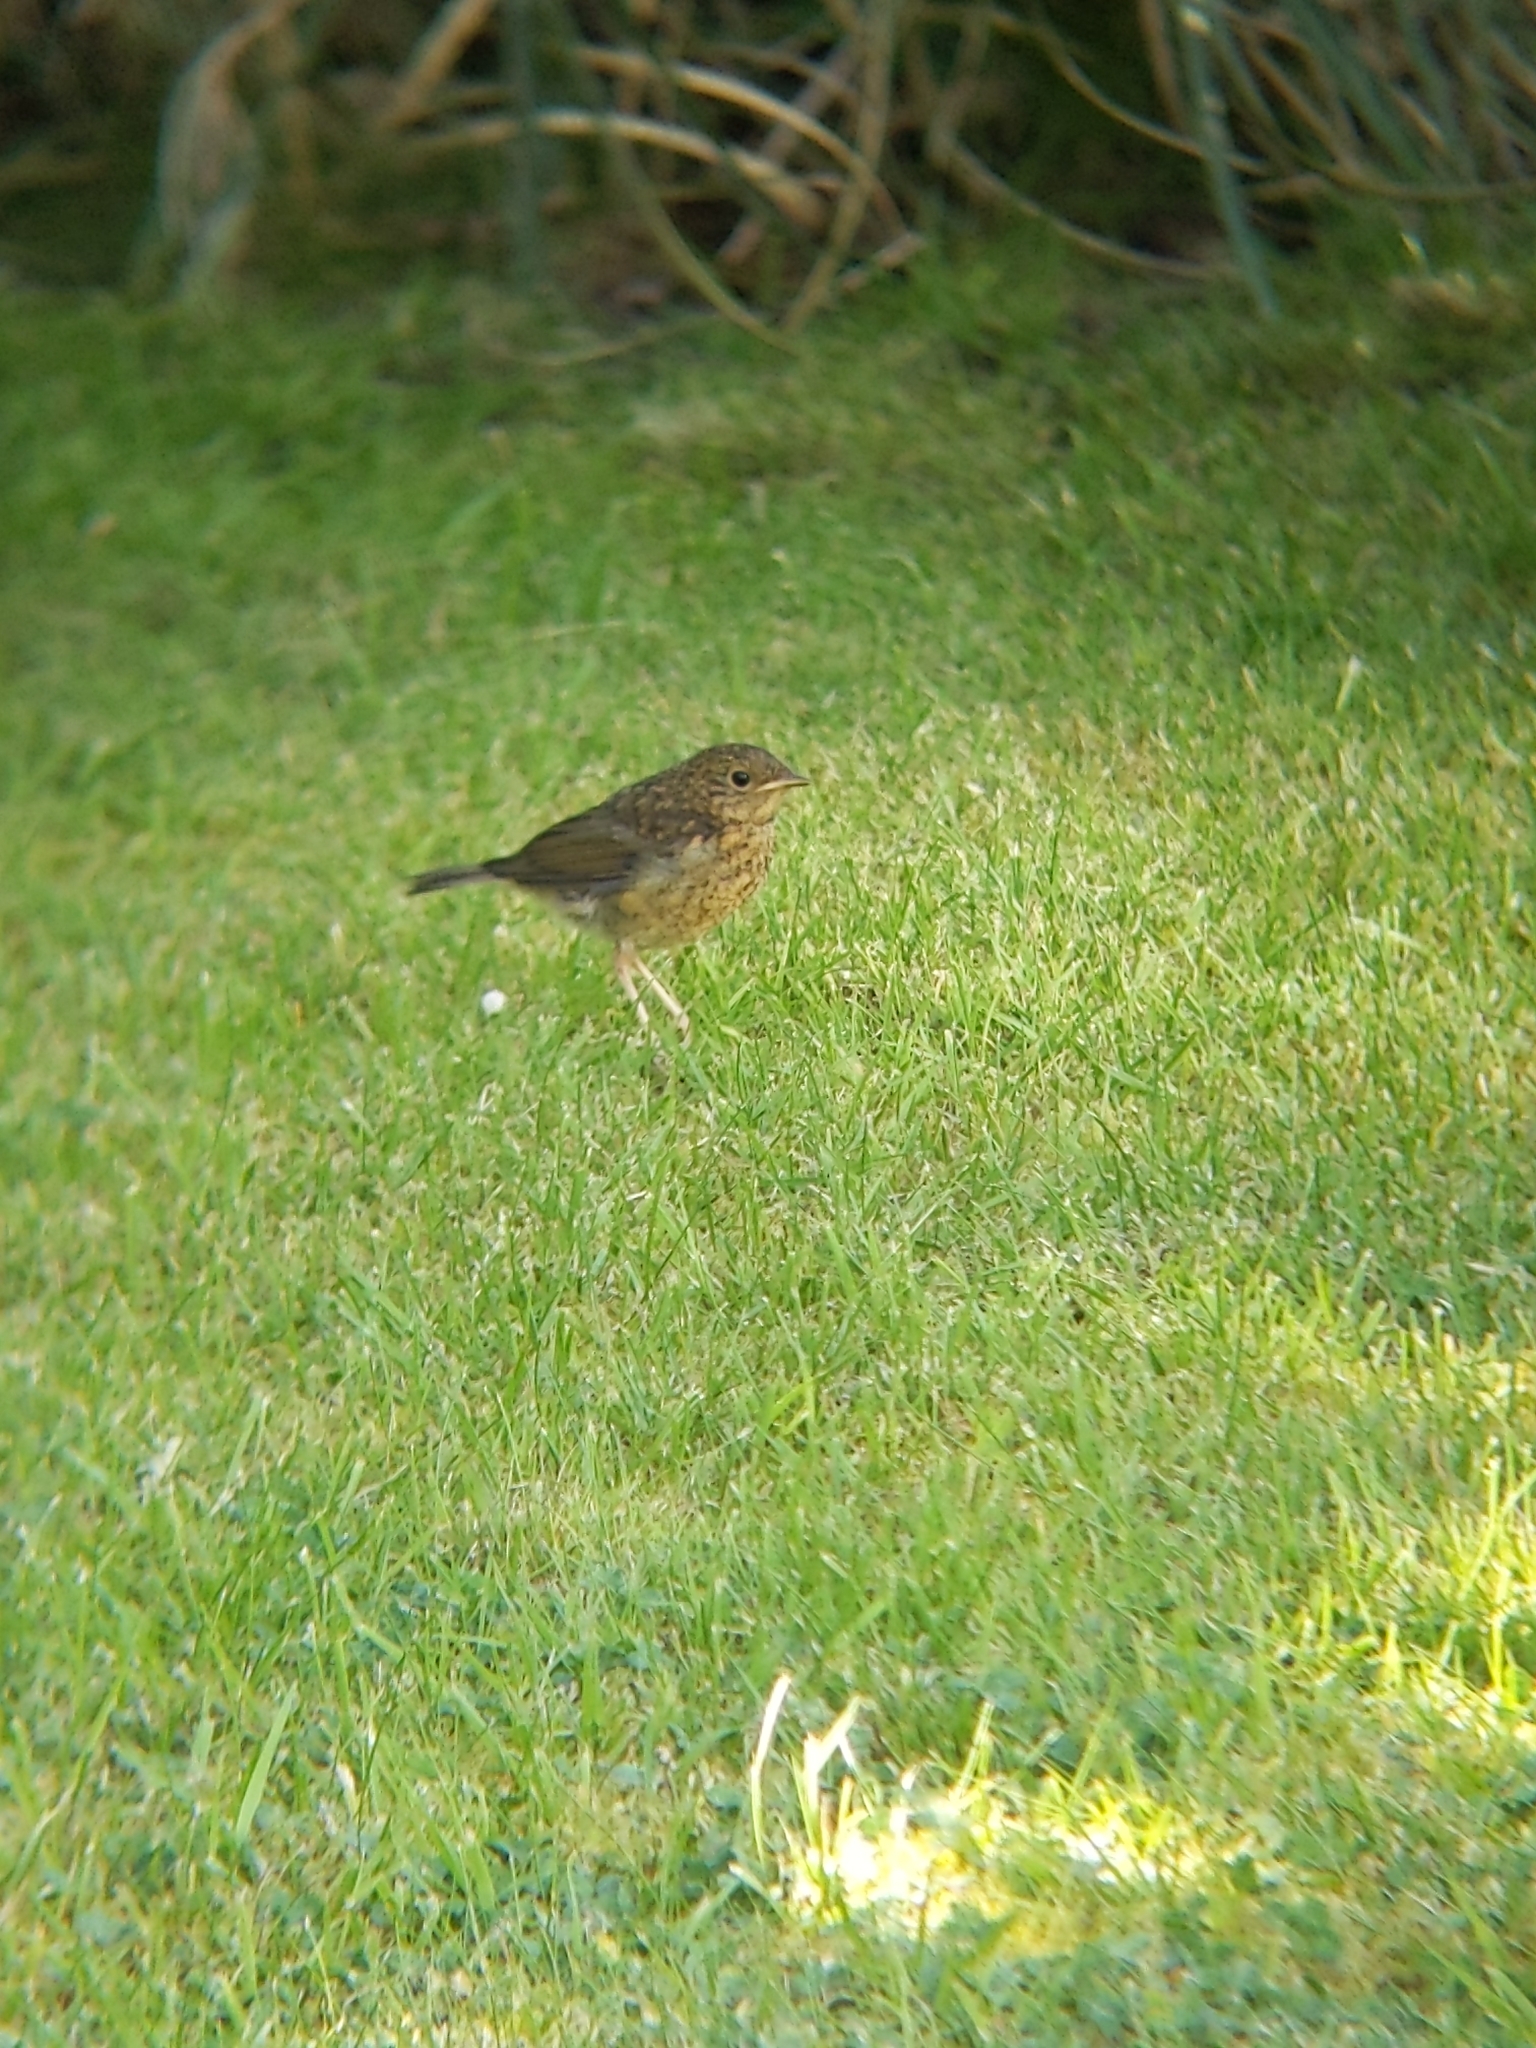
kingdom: Animalia
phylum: Chordata
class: Aves
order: Passeriformes
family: Muscicapidae
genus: Erithacus
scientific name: Erithacus rubecula
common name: European robin
